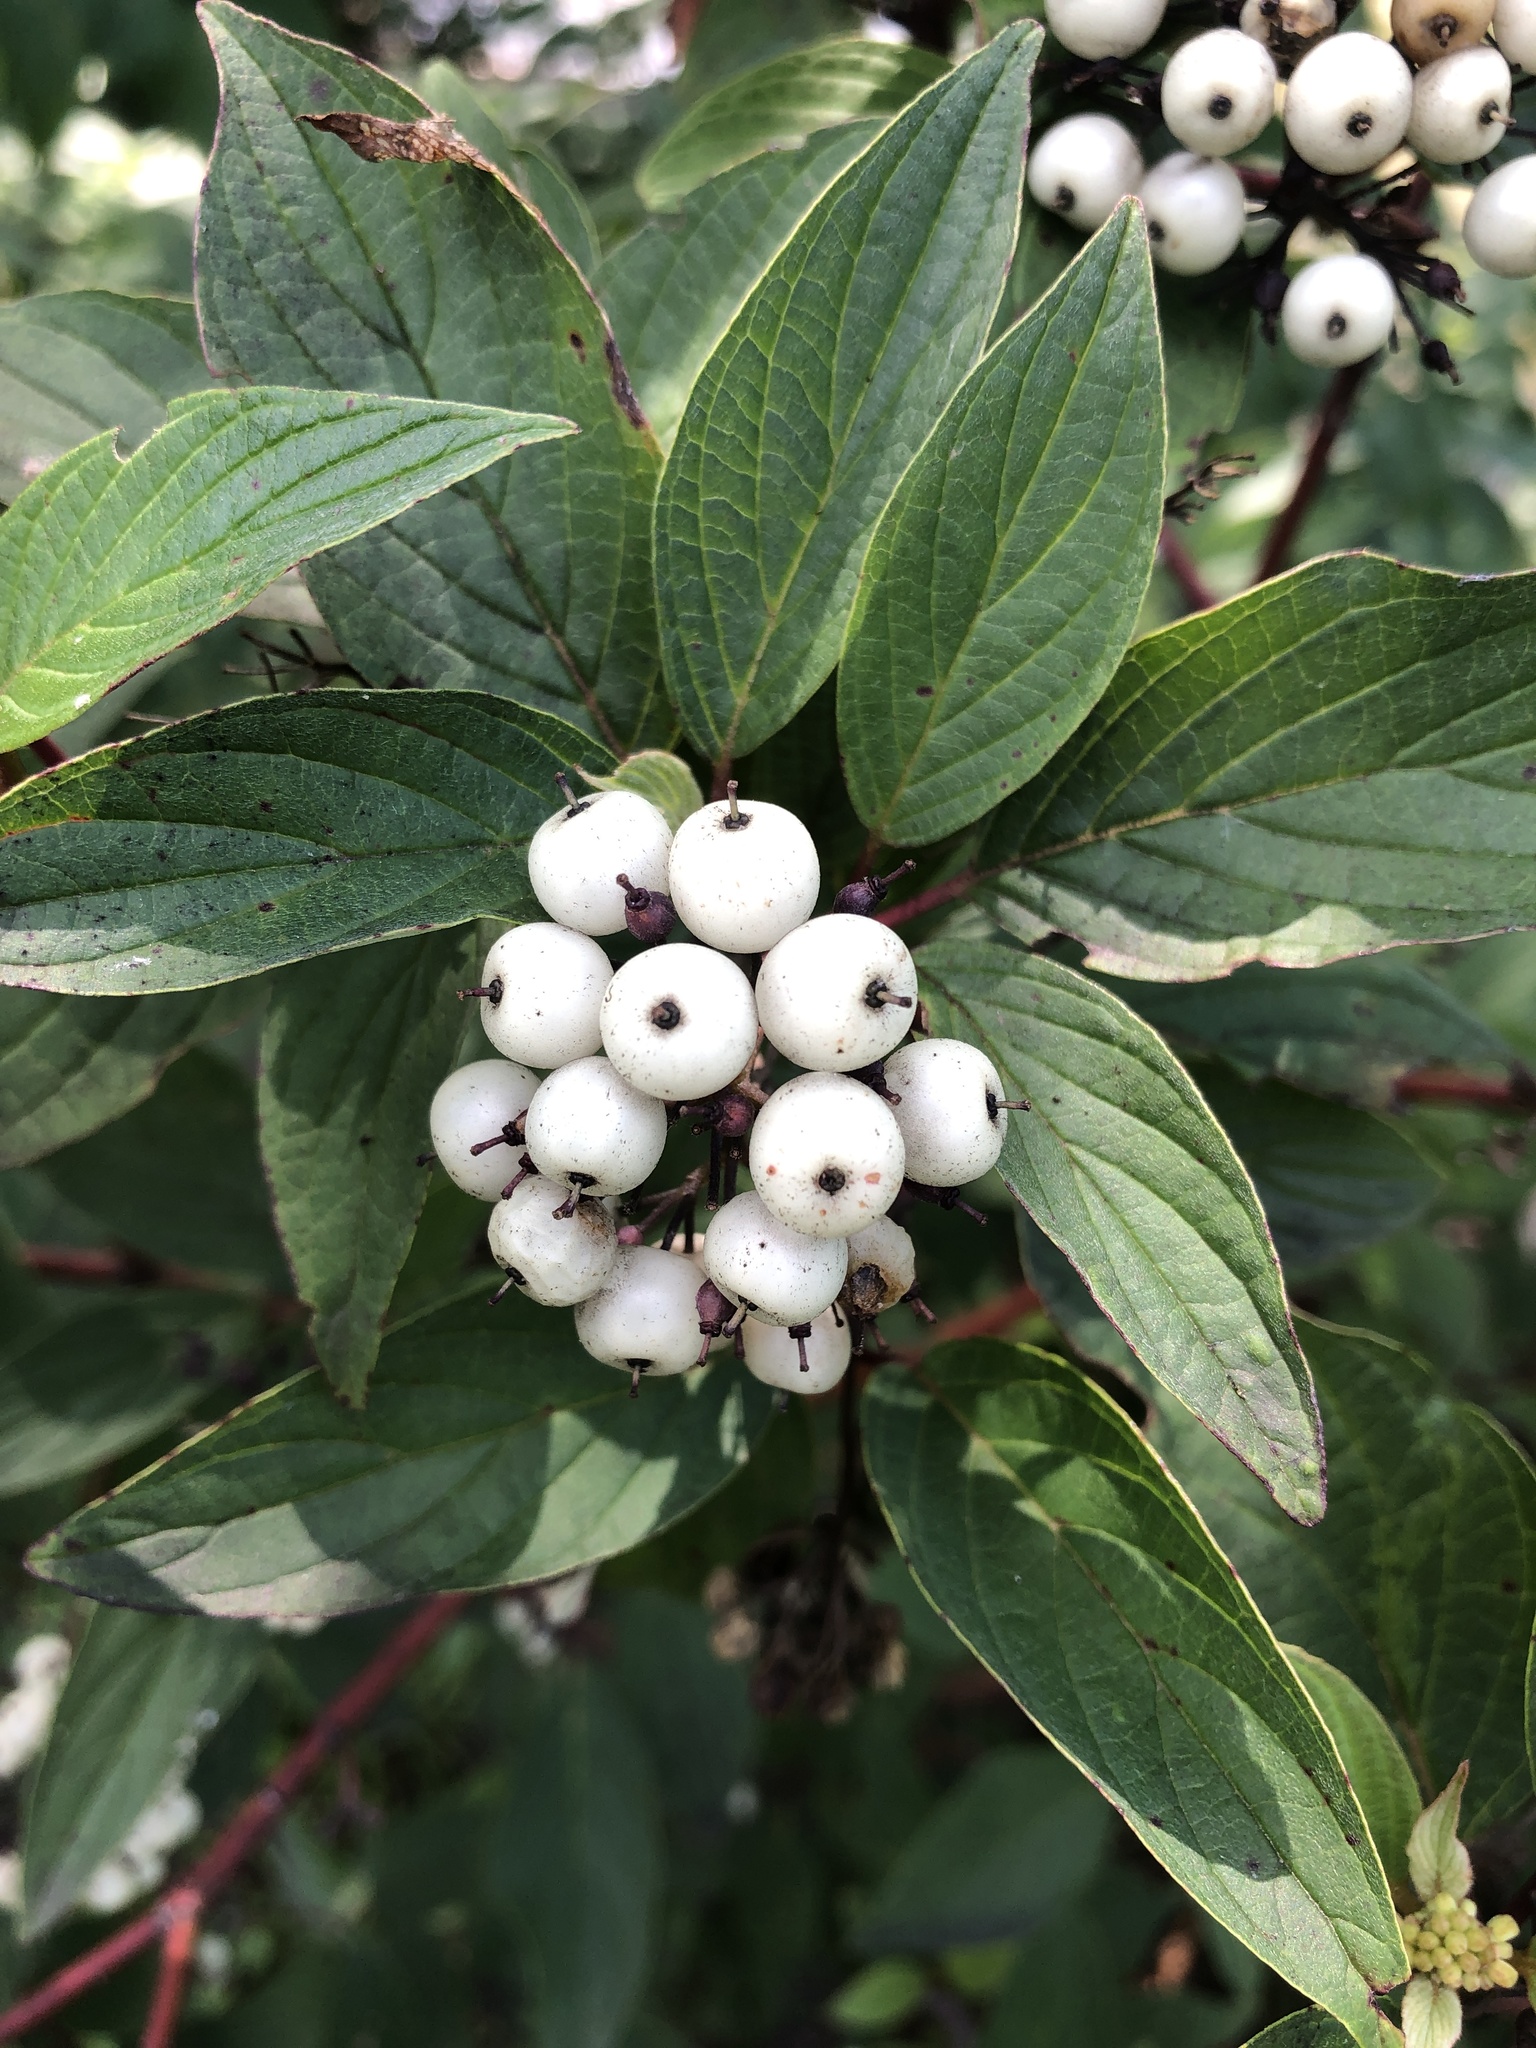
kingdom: Plantae
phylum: Tracheophyta
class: Magnoliopsida
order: Cornales
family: Cornaceae
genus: Cornus
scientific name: Cornus sericea
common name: Red-osier dogwood
